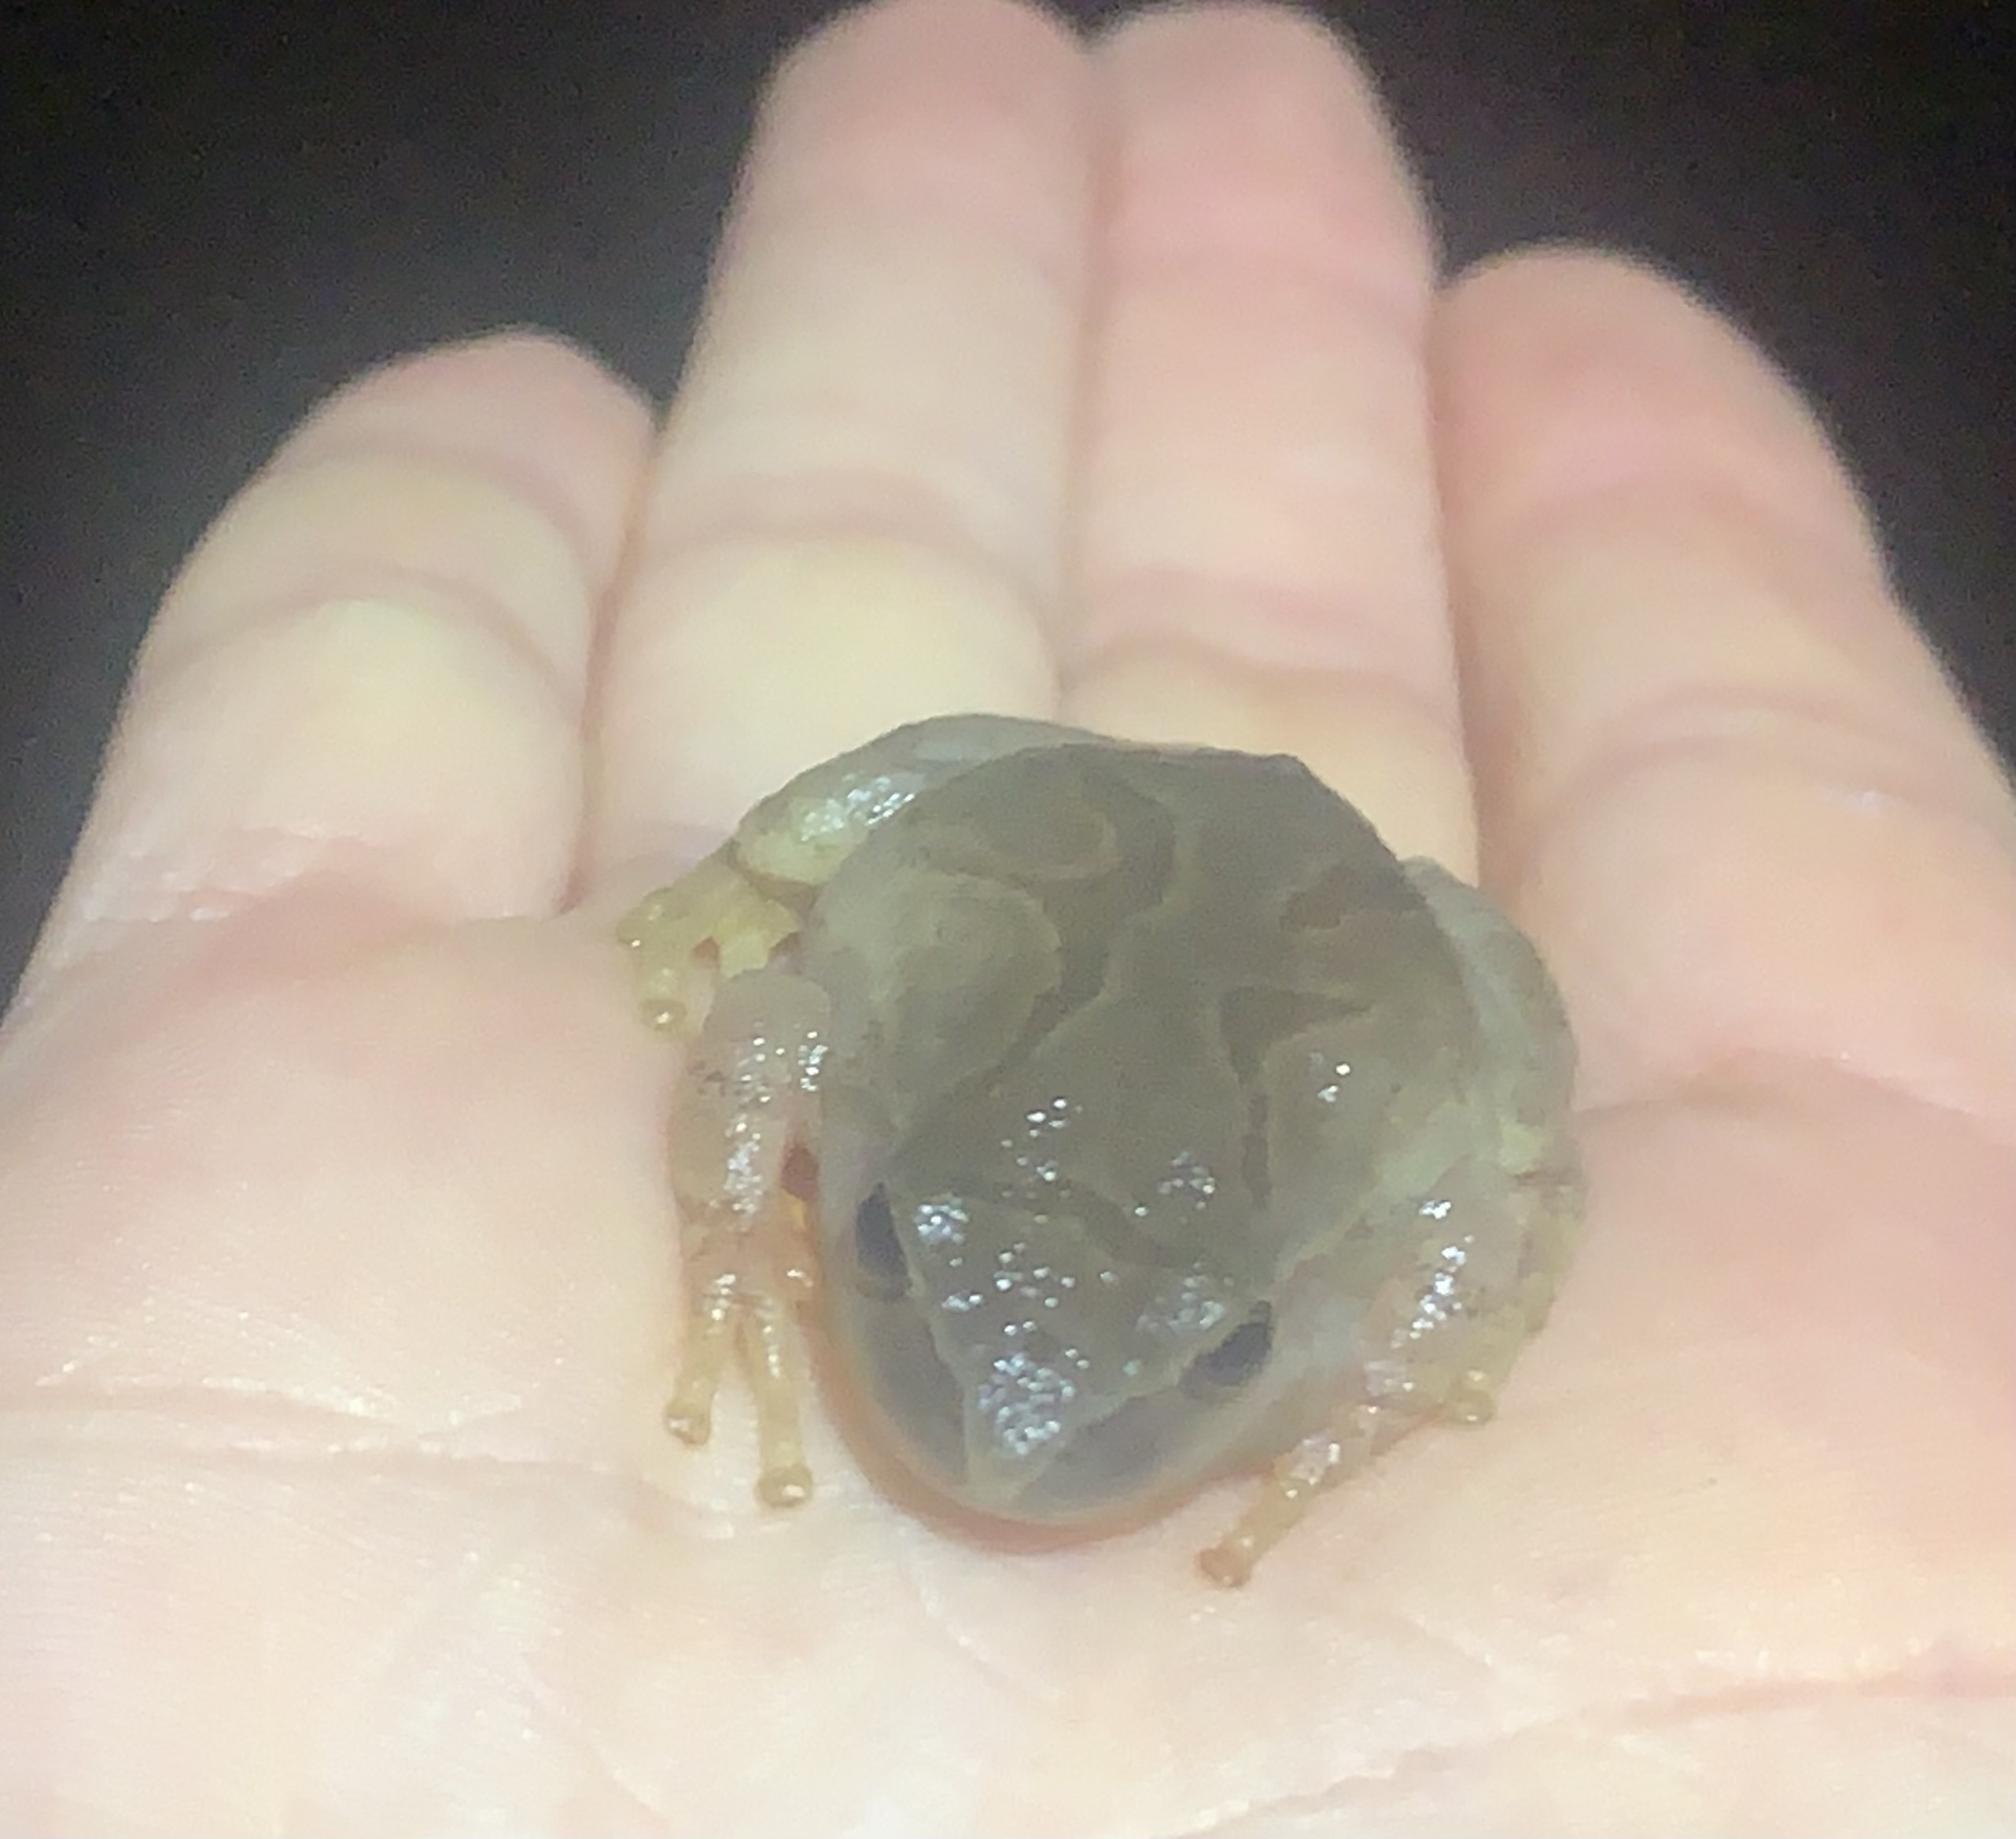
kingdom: Animalia
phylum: Chordata
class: Amphibia
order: Anura
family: Hylidae
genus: Pseudacris
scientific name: Pseudacris crucifer
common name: Spring peeper
